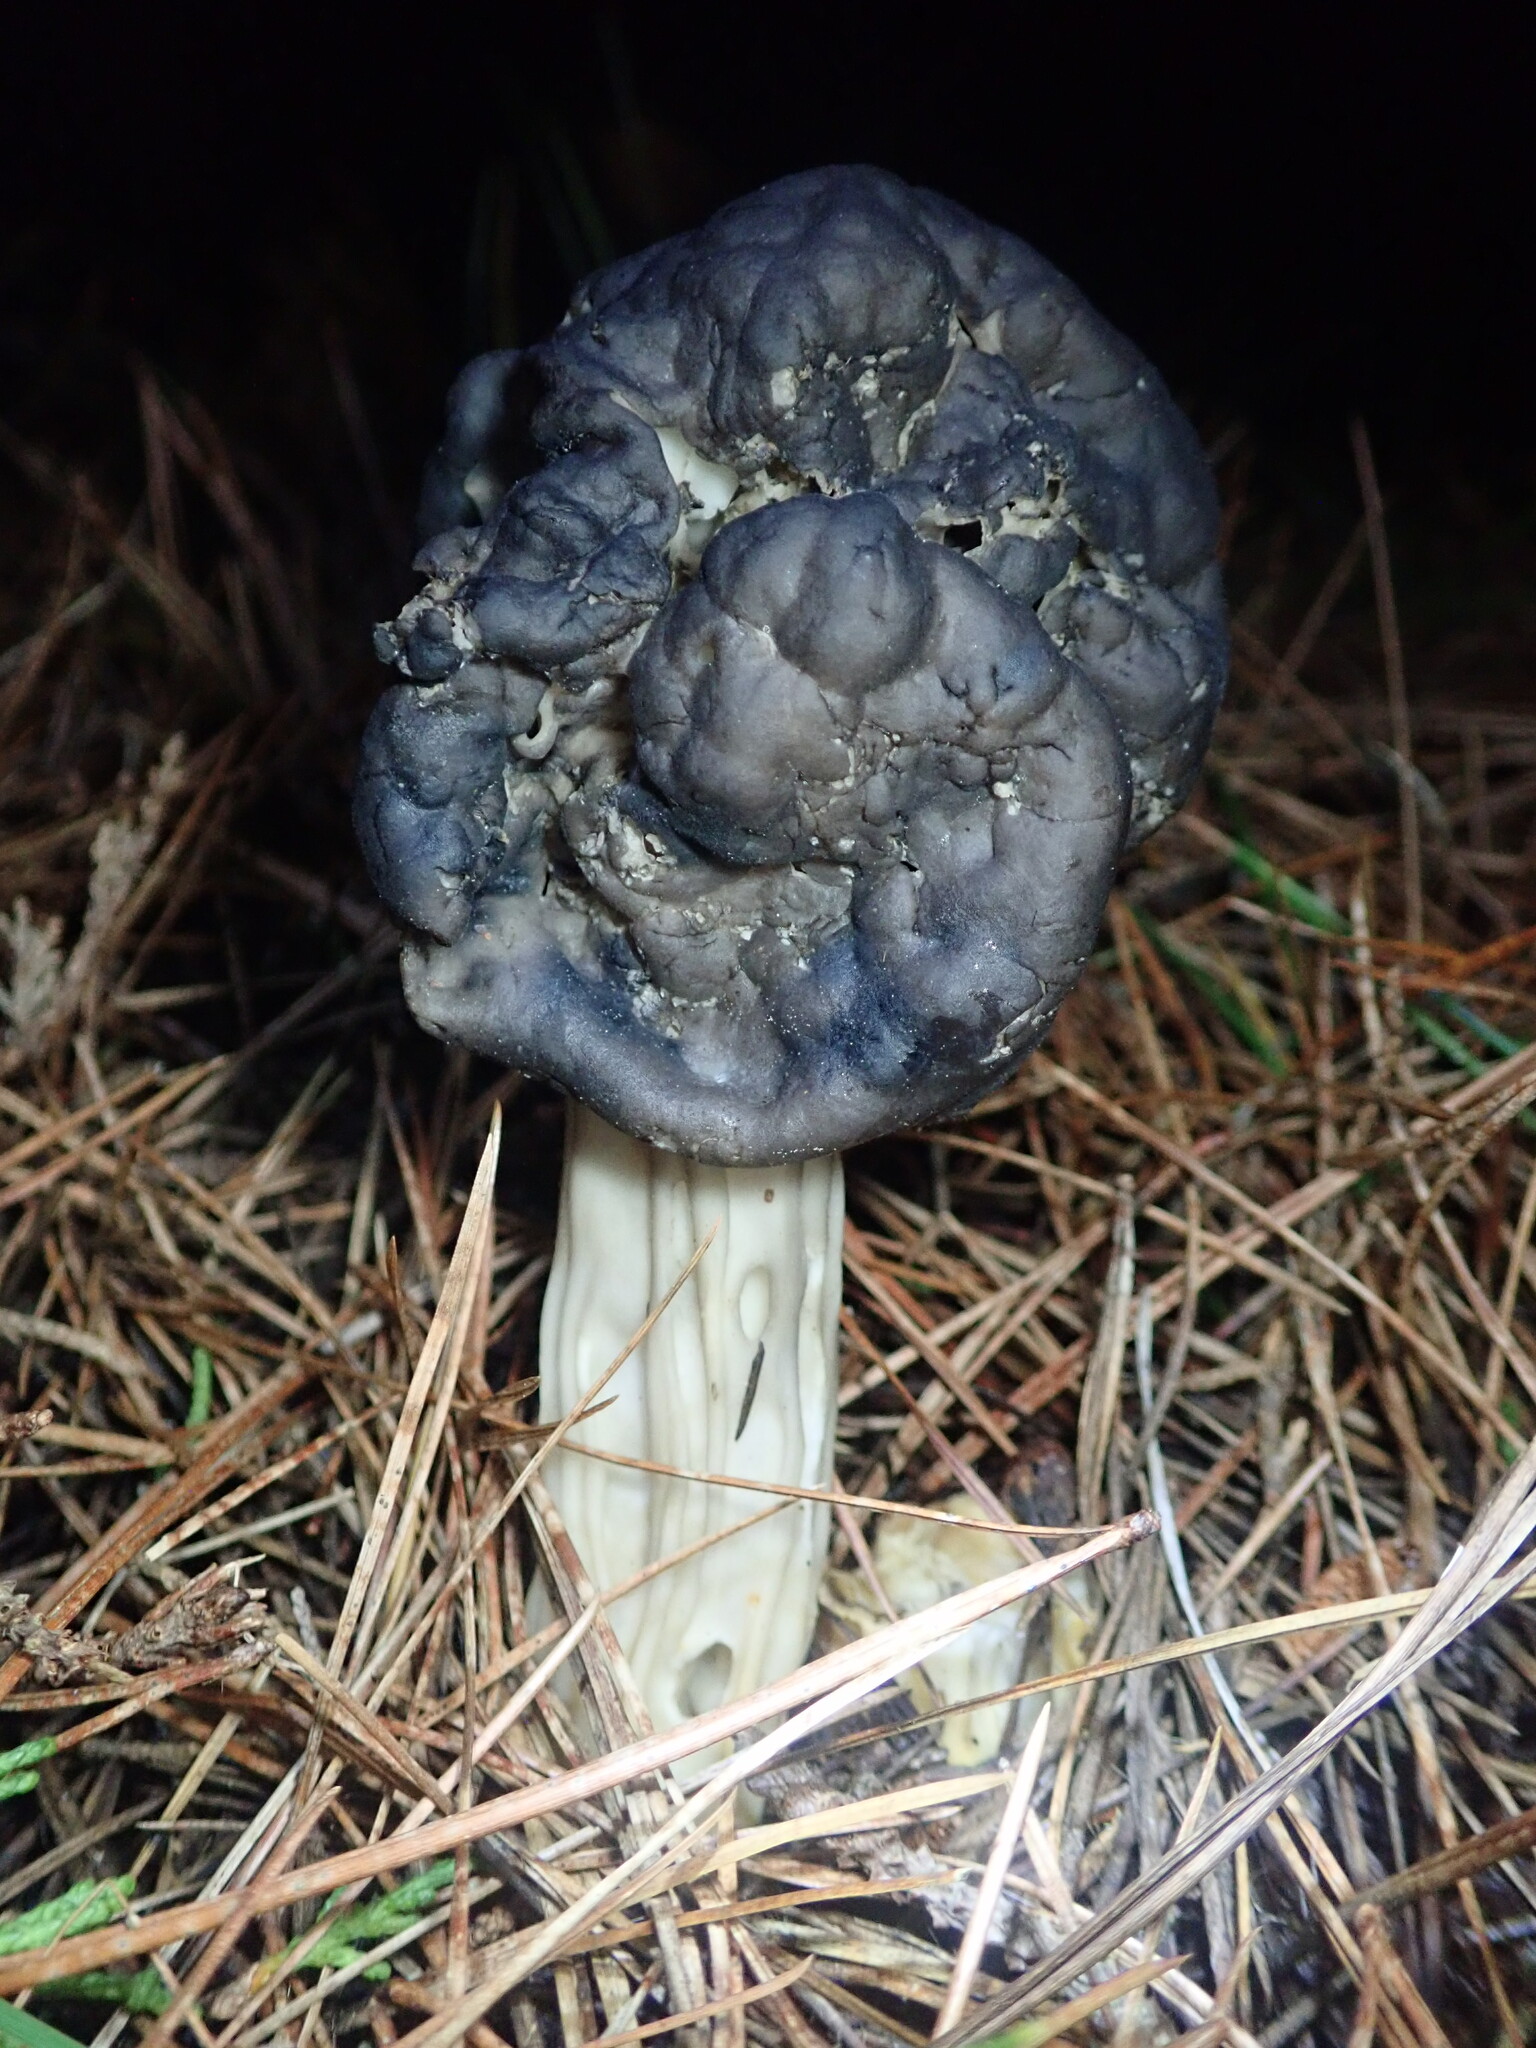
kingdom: Fungi
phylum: Ascomycota
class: Pezizomycetes
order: Pezizales
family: Helvellaceae
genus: Helvella
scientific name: Helvella vespertina
